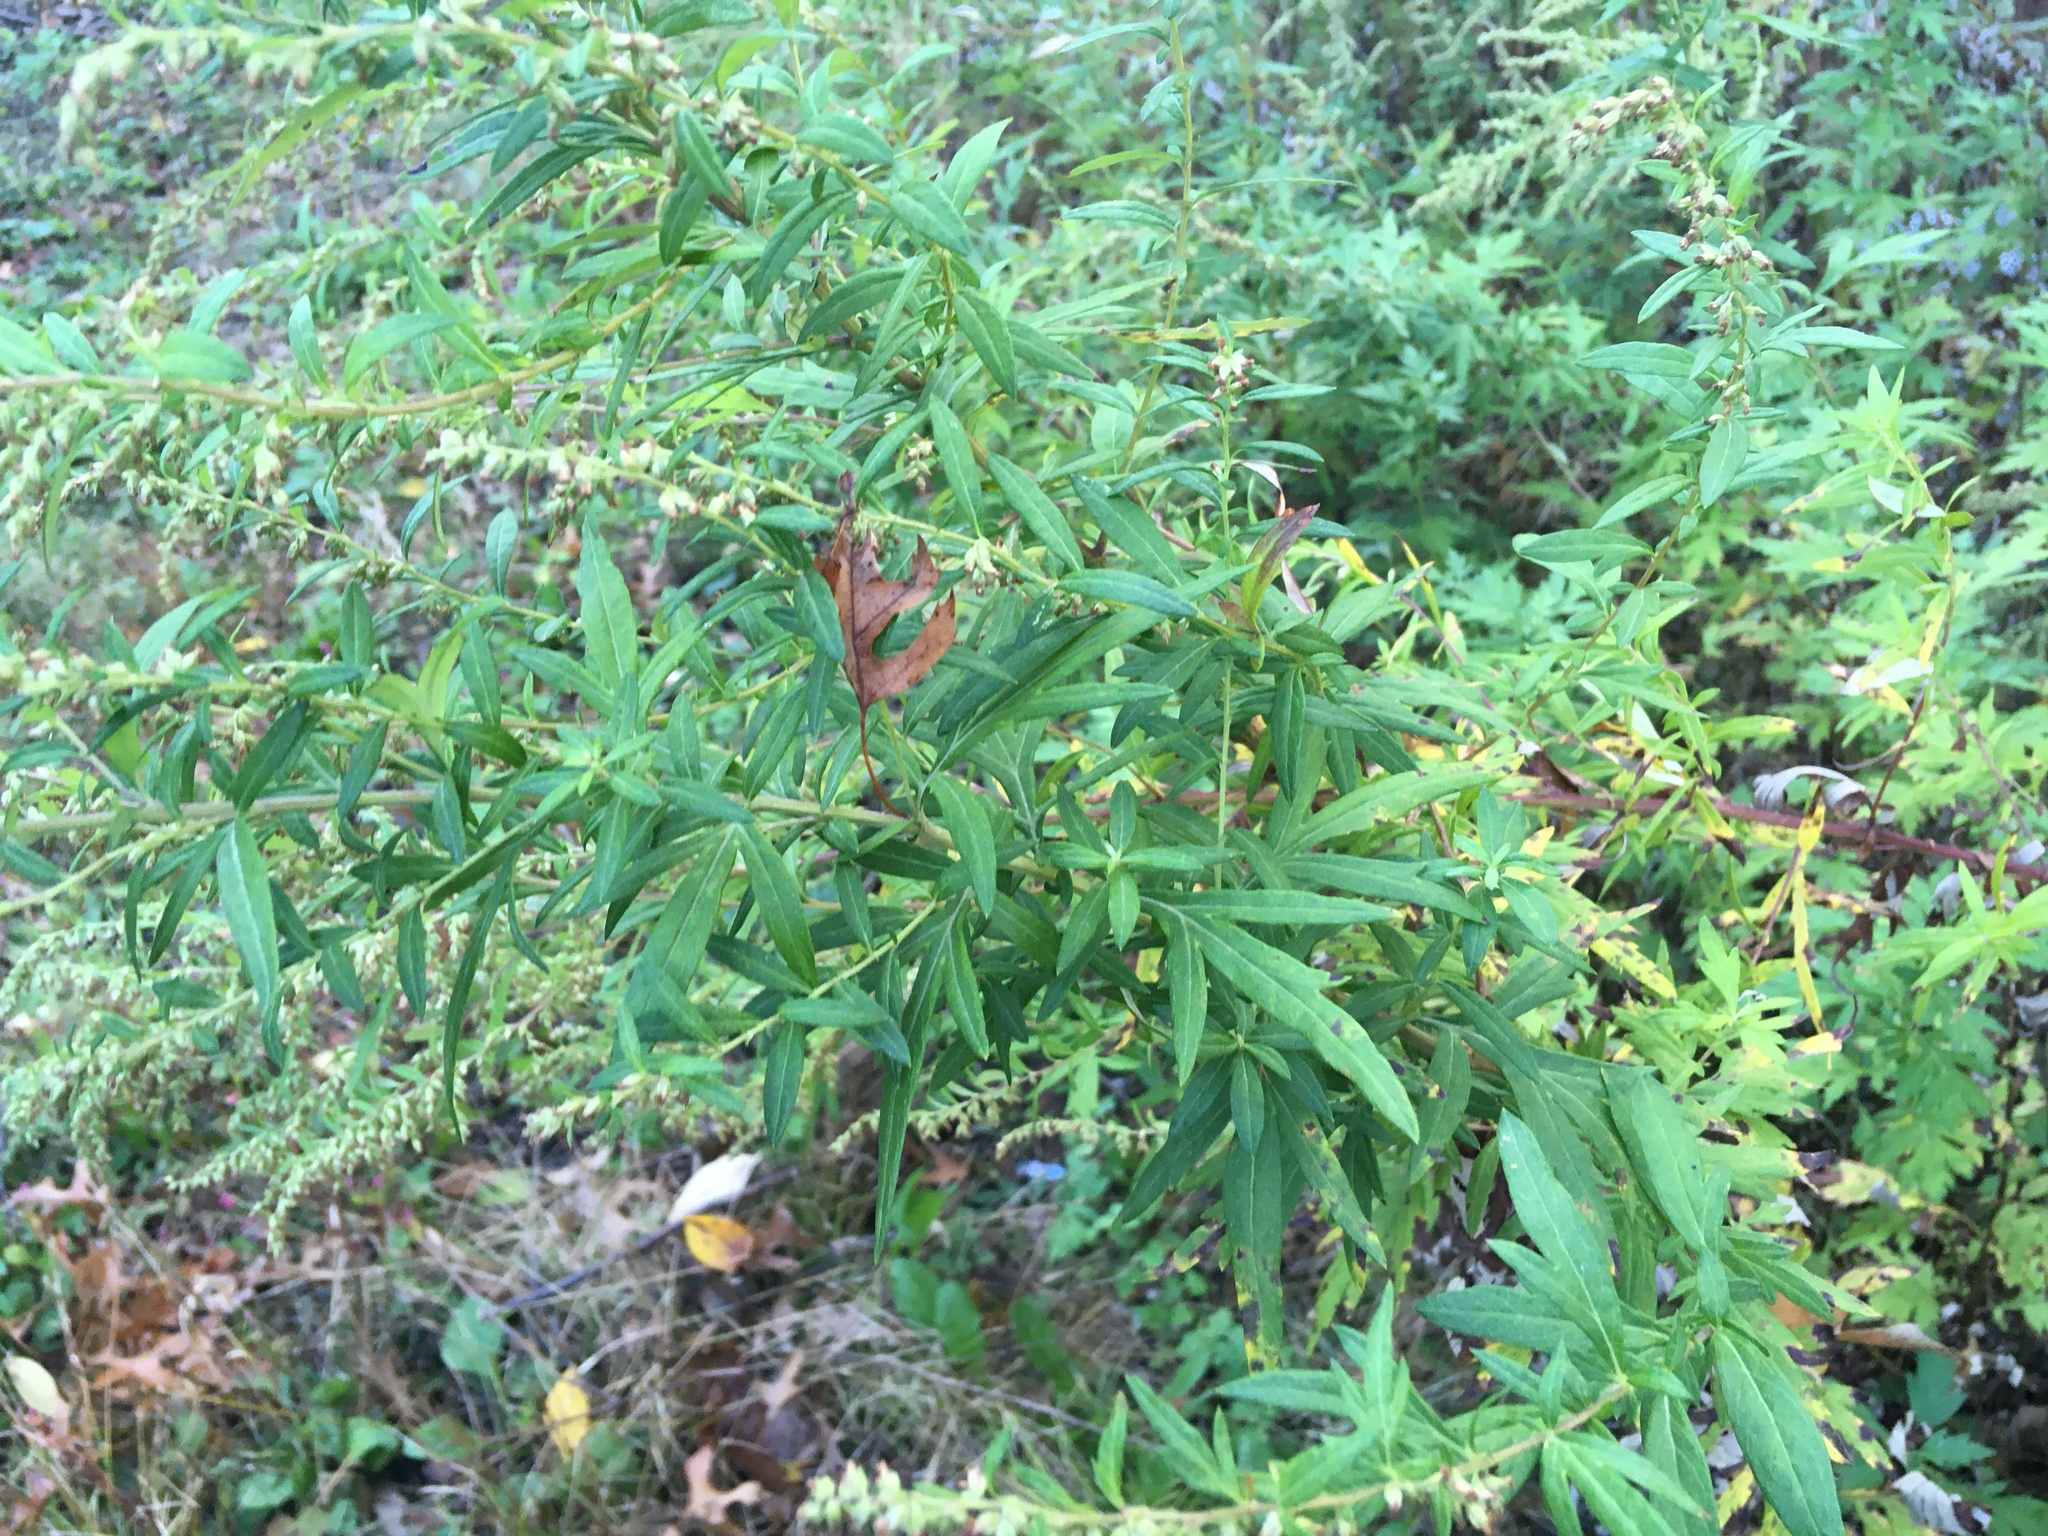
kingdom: Plantae
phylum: Tracheophyta
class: Magnoliopsida
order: Asterales
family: Asteraceae
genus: Artemisia
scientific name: Artemisia vulgaris
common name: Mugwort
